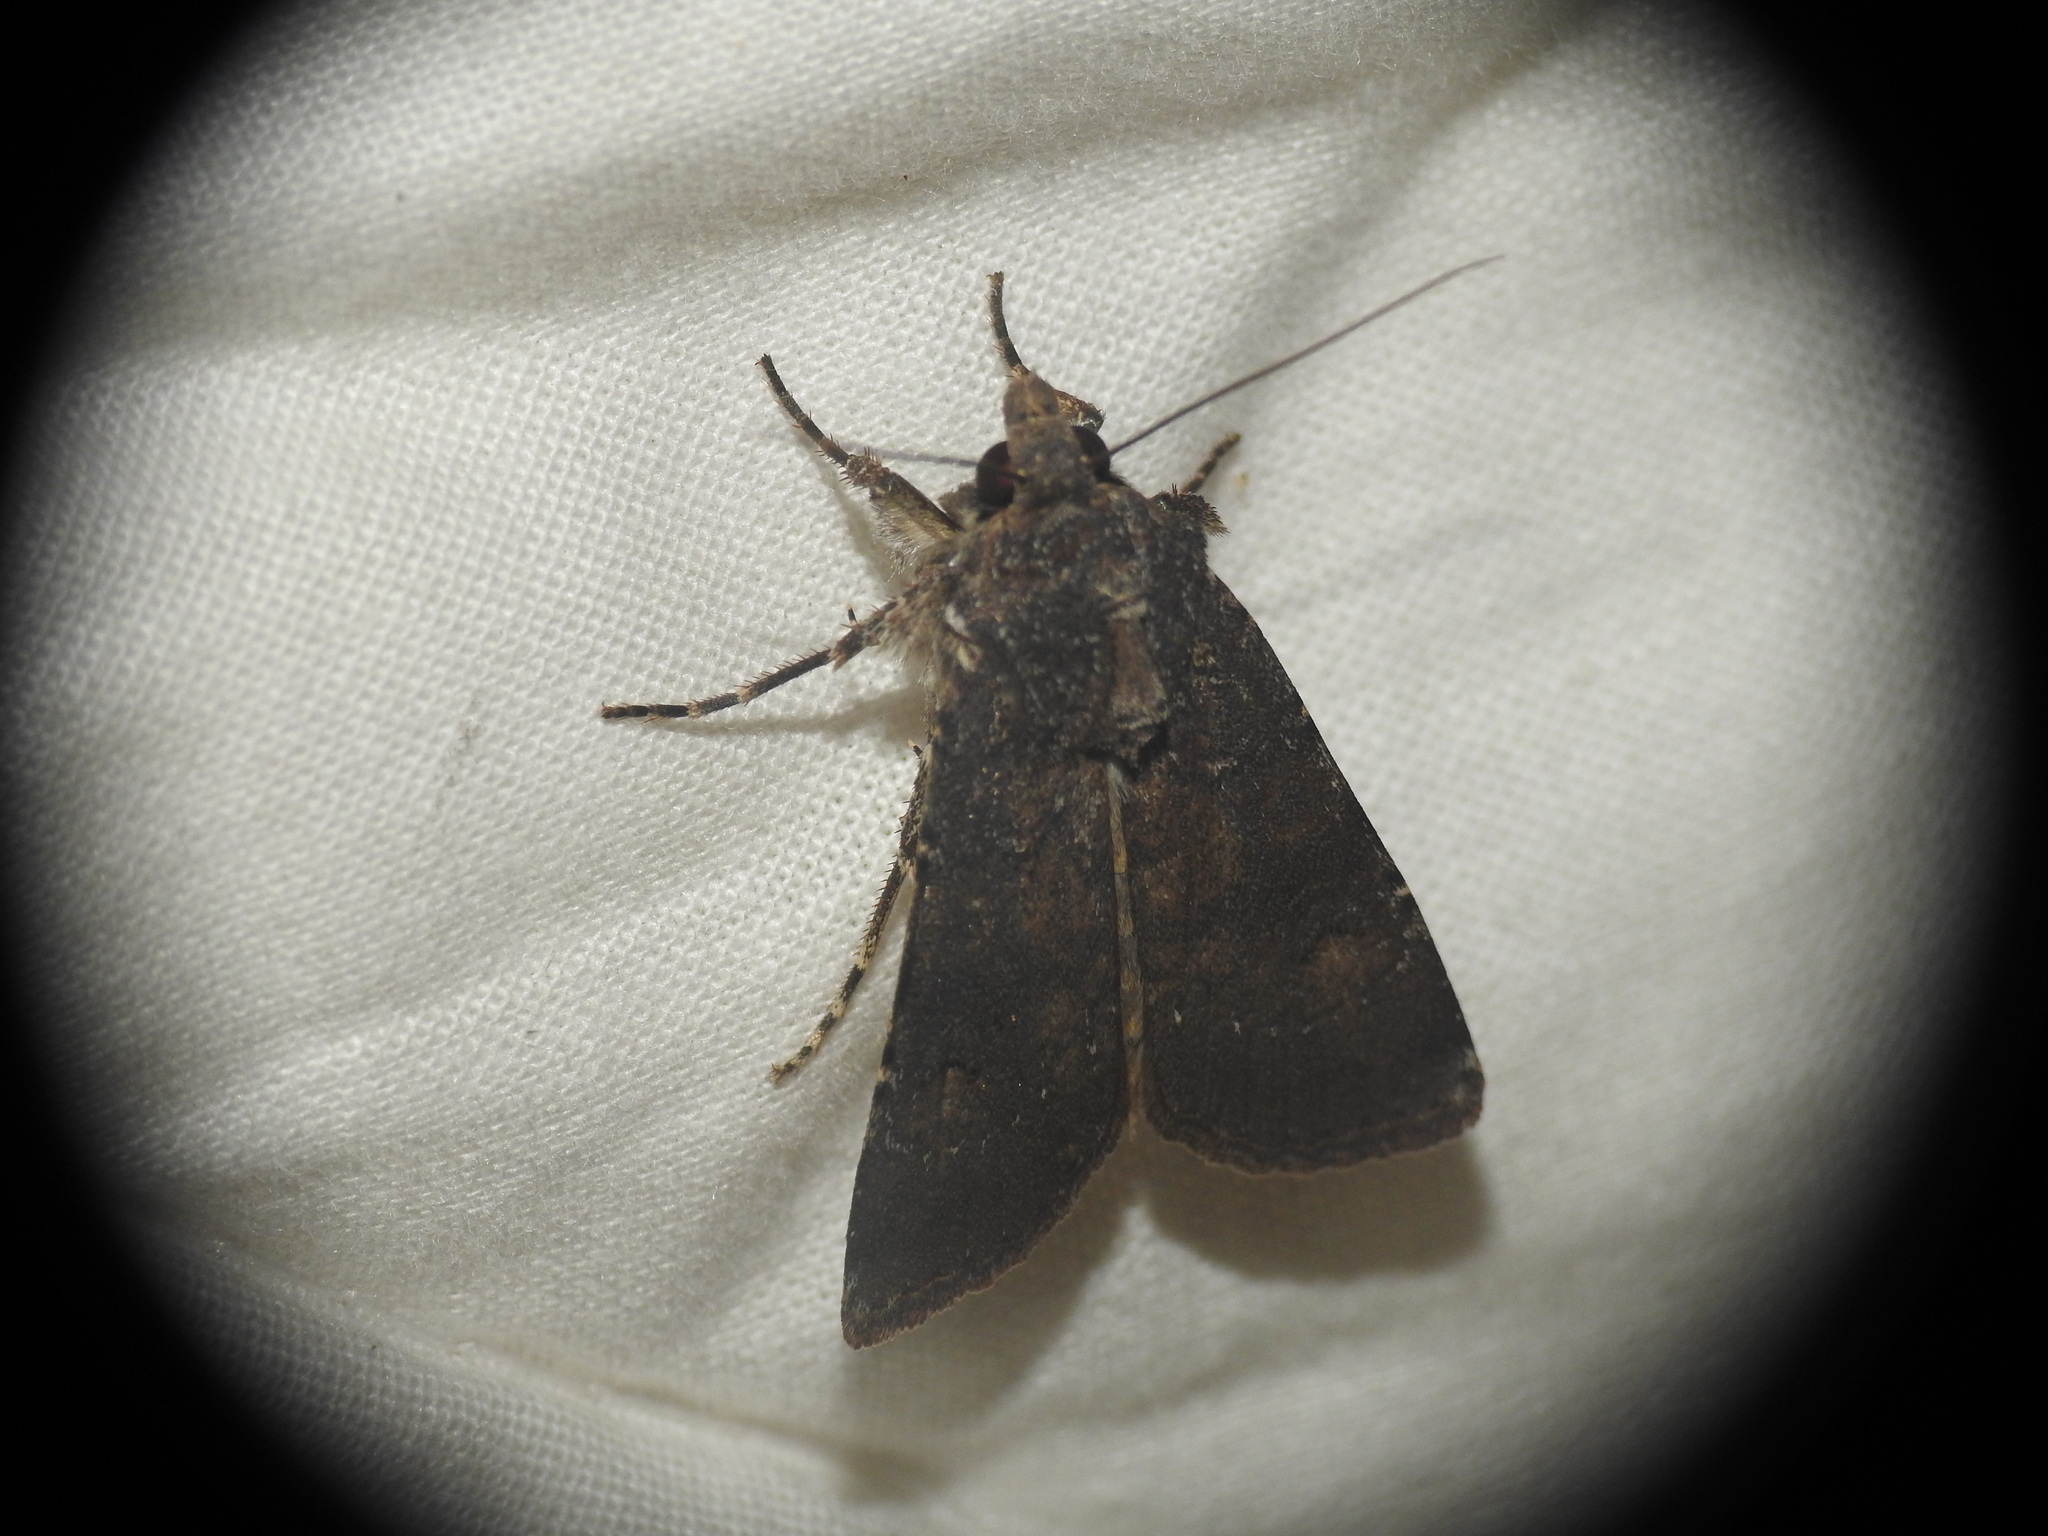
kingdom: Animalia
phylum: Arthropoda
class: Insecta
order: Lepidoptera
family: Noctuidae
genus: Agrotis
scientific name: Agrotis trux
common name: Crescent dart
